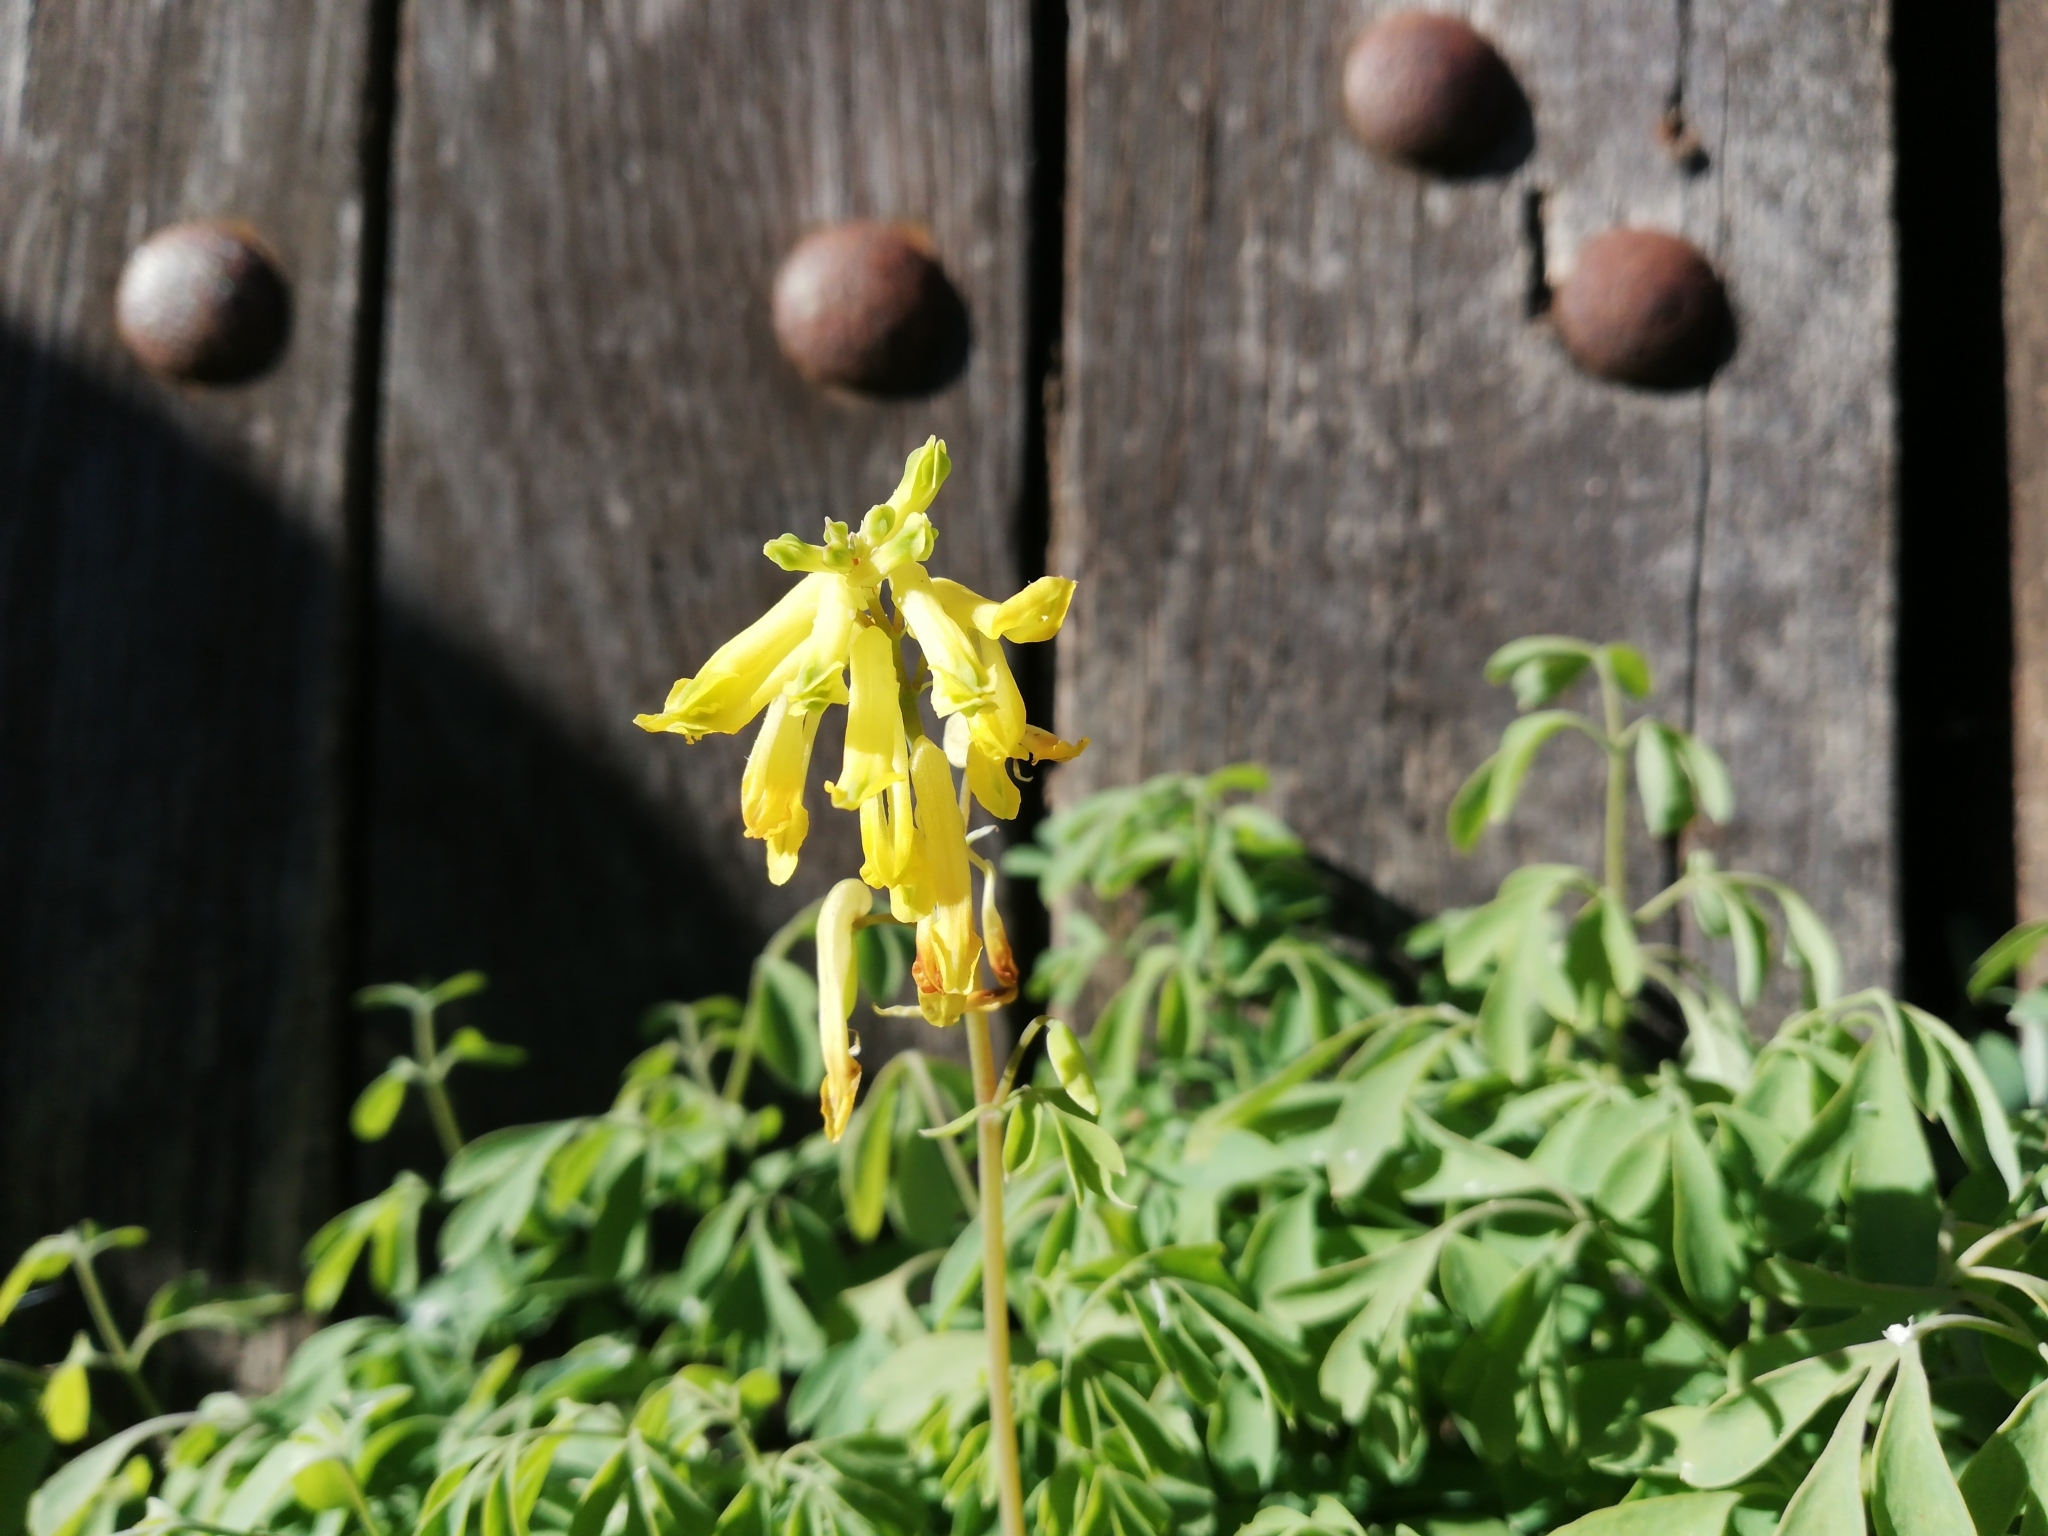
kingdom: Plantae
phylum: Tracheophyta
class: Magnoliopsida
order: Ranunculales
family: Papaveraceae
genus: Pseudofumaria
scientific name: Pseudofumaria lutea
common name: Yellow corydalis
